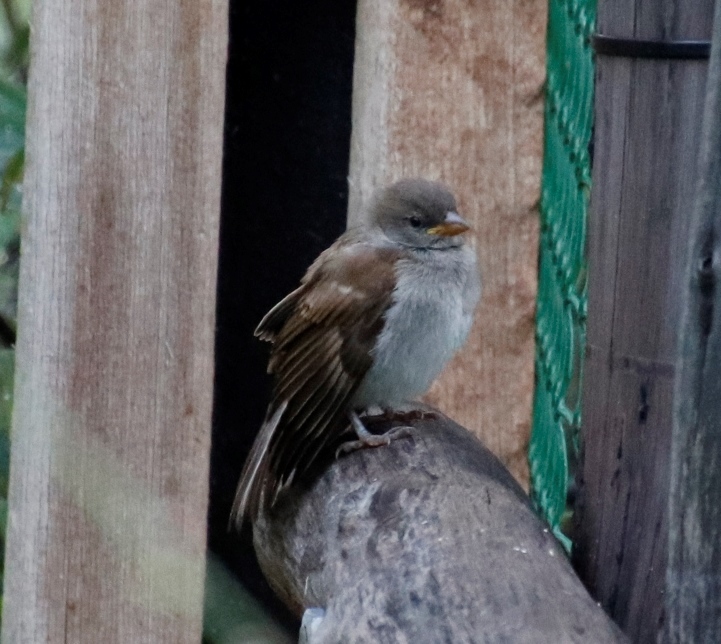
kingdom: Animalia
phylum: Chordata
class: Aves
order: Passeriformes
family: Passeridae
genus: Passer
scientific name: Passer diffusus
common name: Southern grey-headed sparrow
